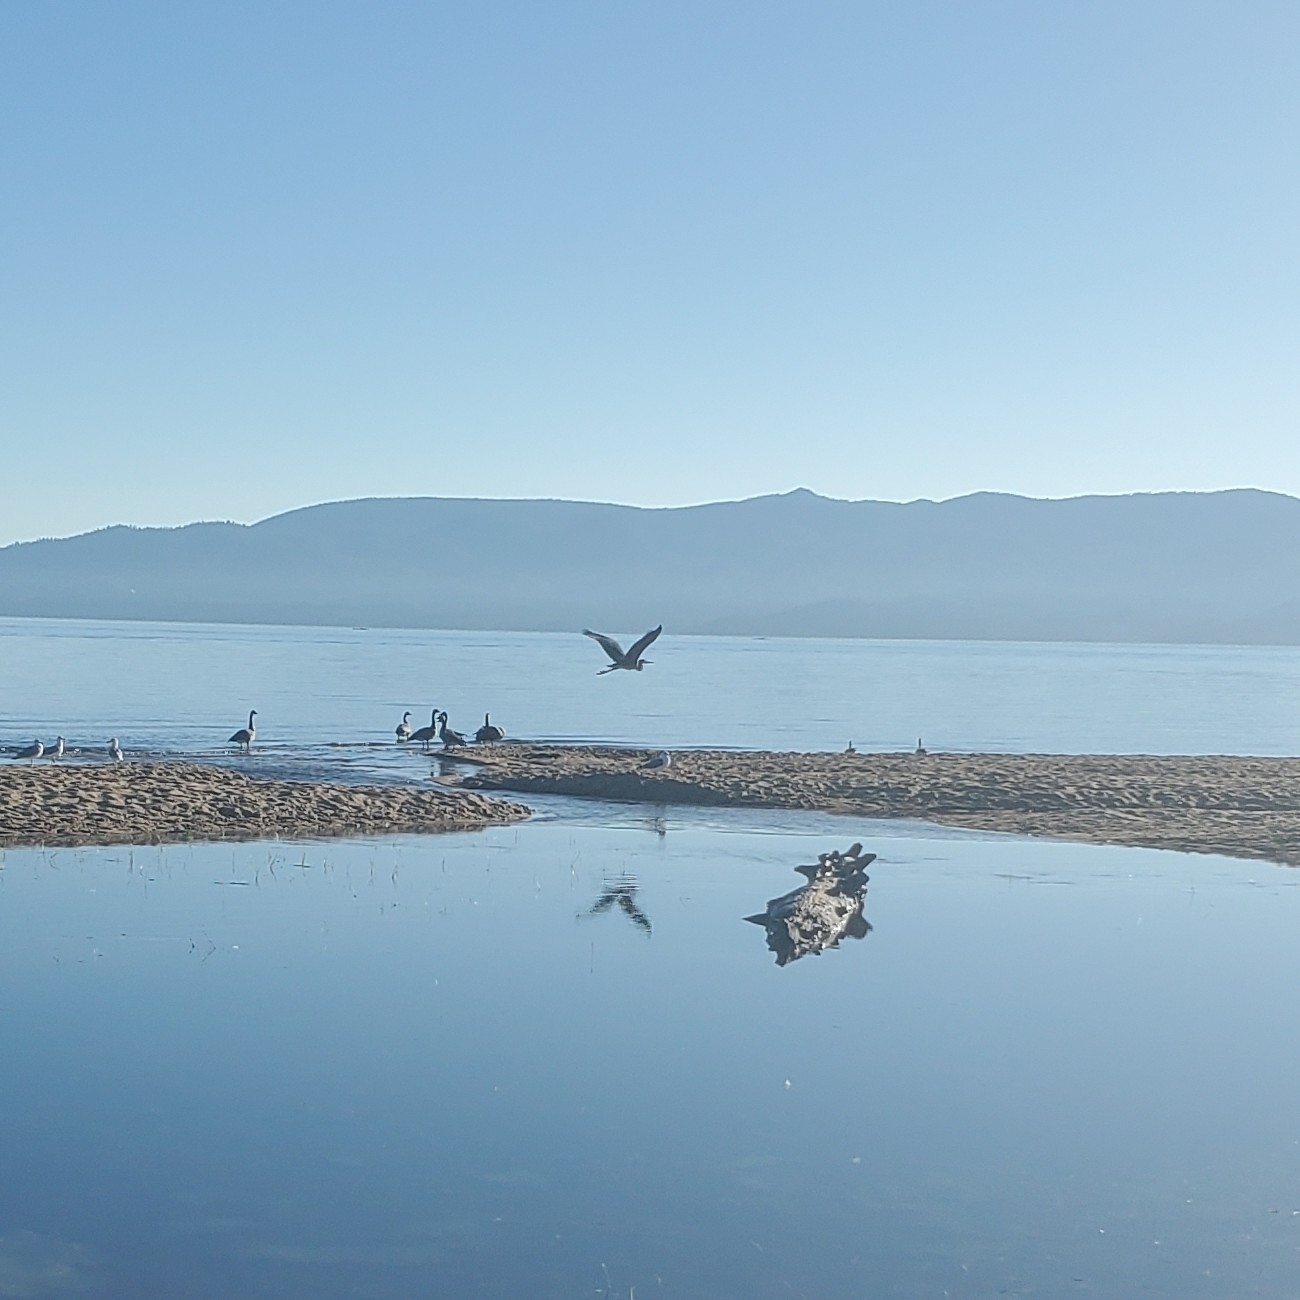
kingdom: Animalia
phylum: Chordata
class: Aves
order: Pelecaniformes
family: Ardeidae
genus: Ardea
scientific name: Ardea herodias
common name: Great blue heron
